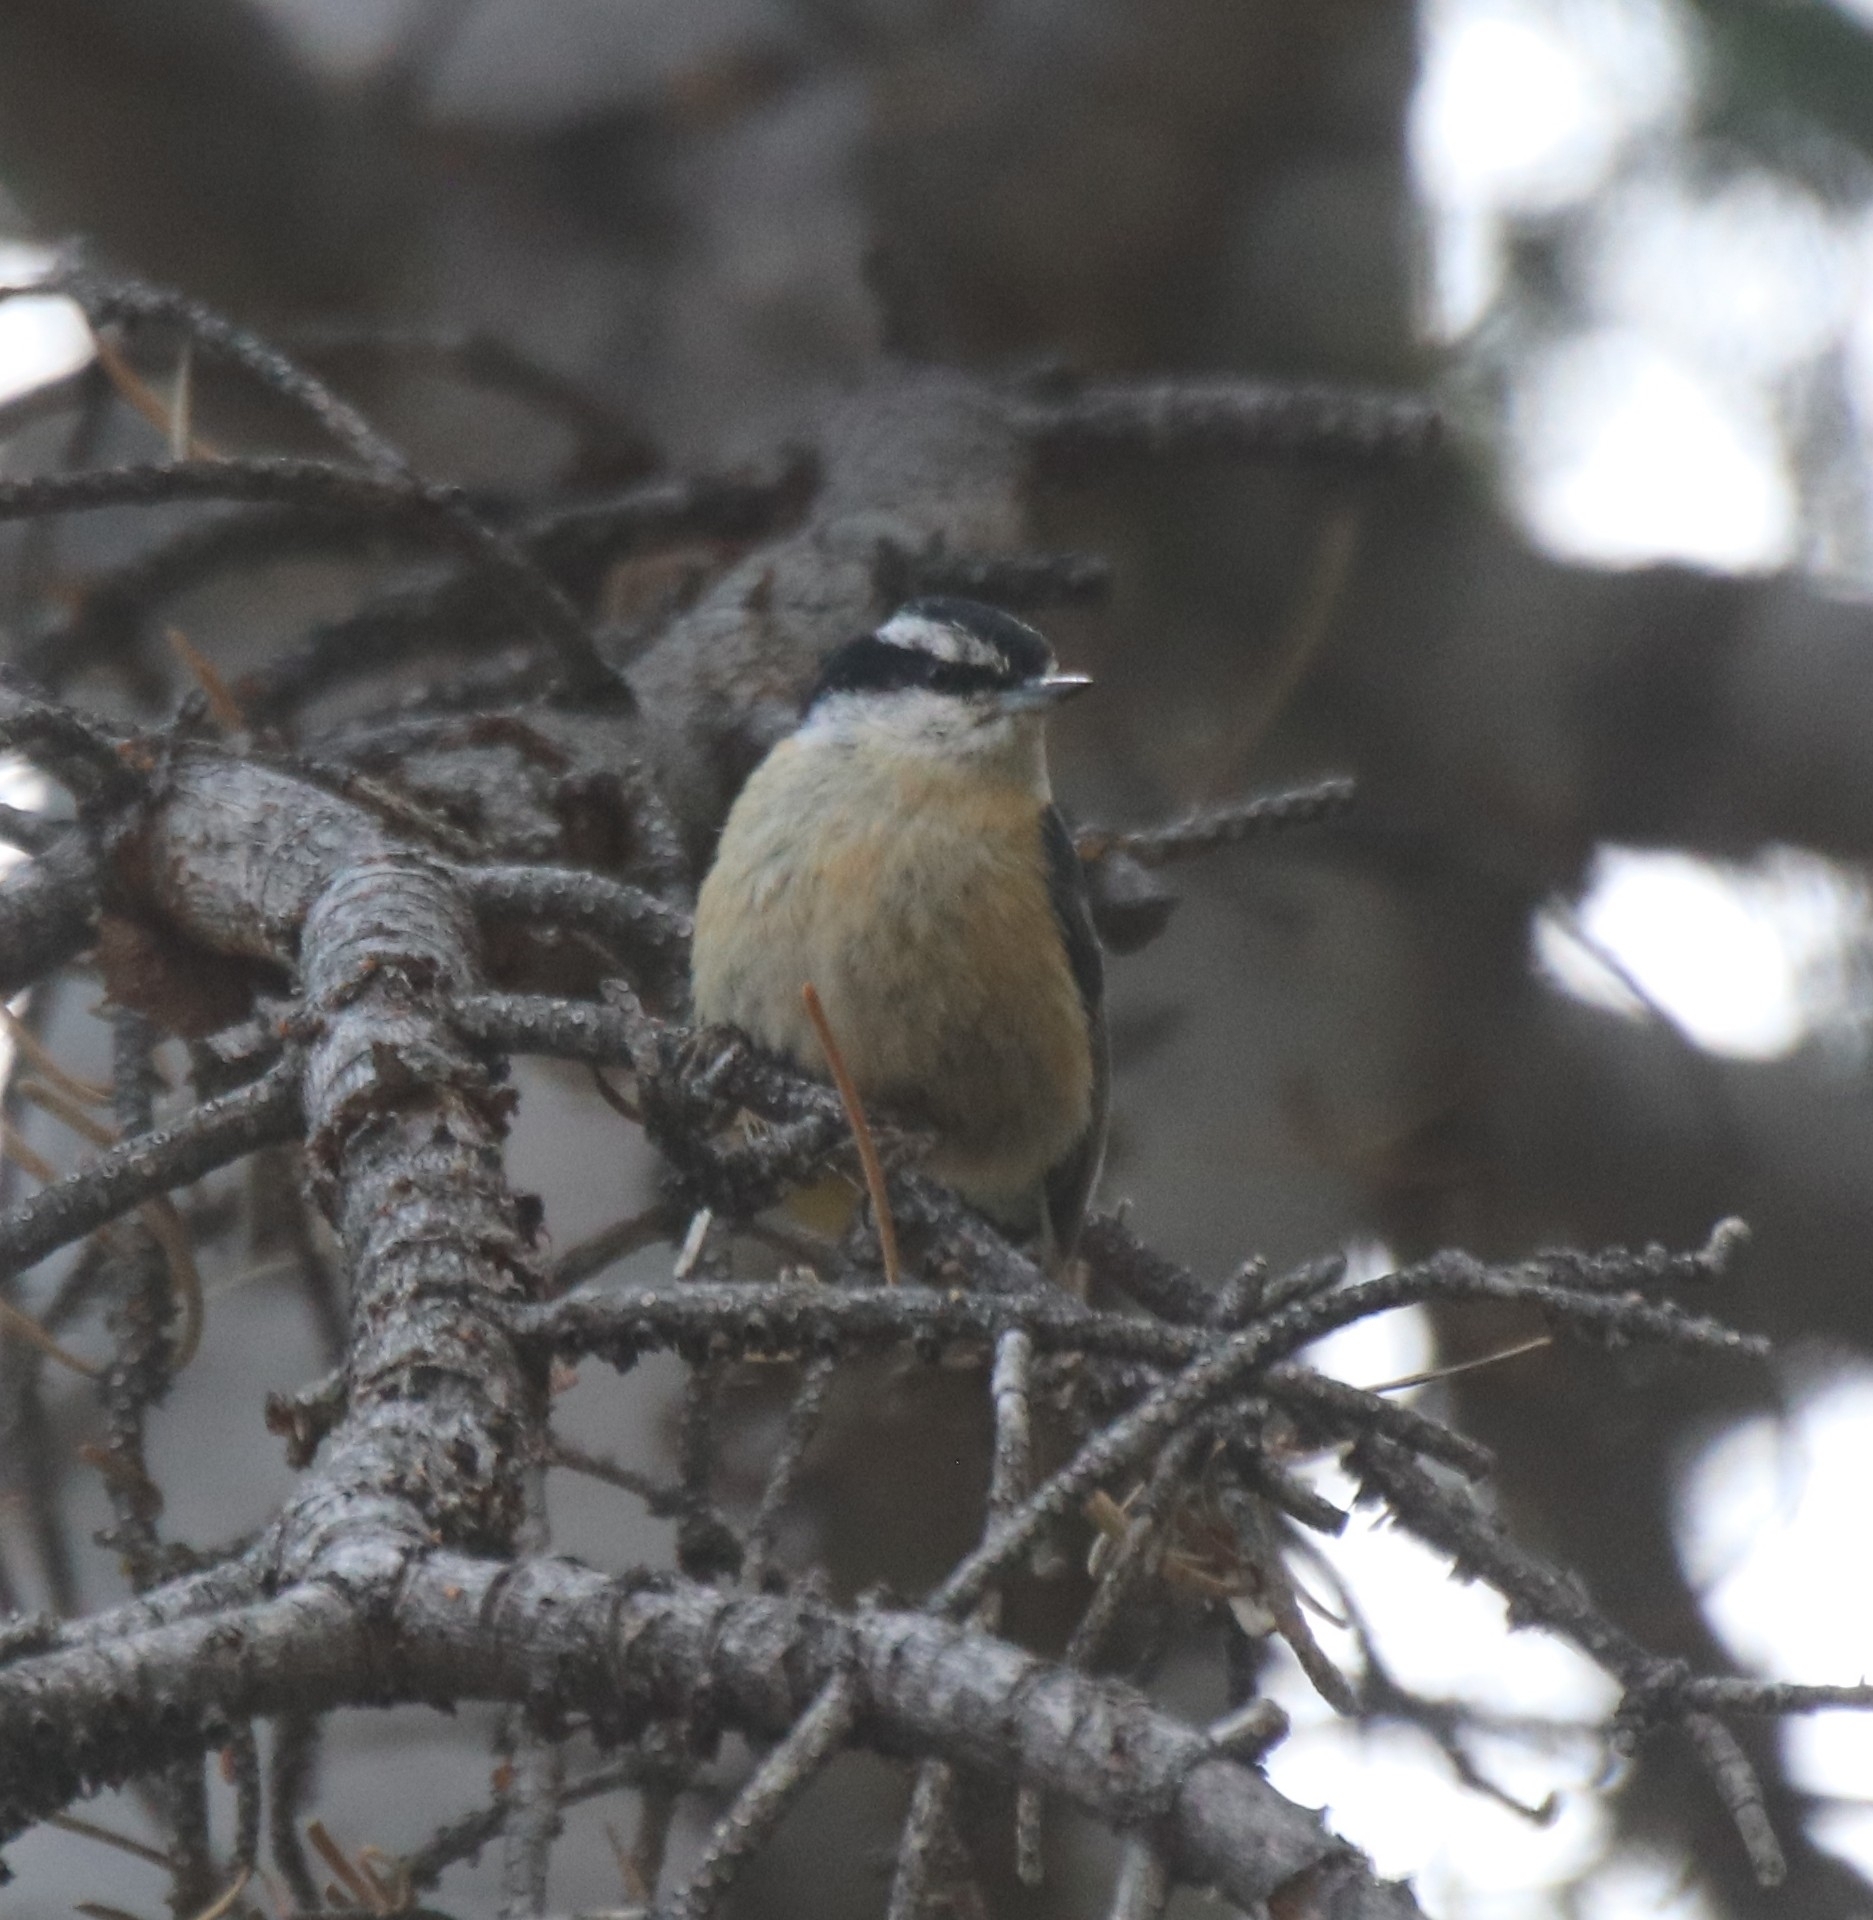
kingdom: Animalia
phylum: Chordata
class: Aves
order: Passeriformes
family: Sittidae
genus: Sitta
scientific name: Sitta canadensis
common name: Red-breasted nuthatch
